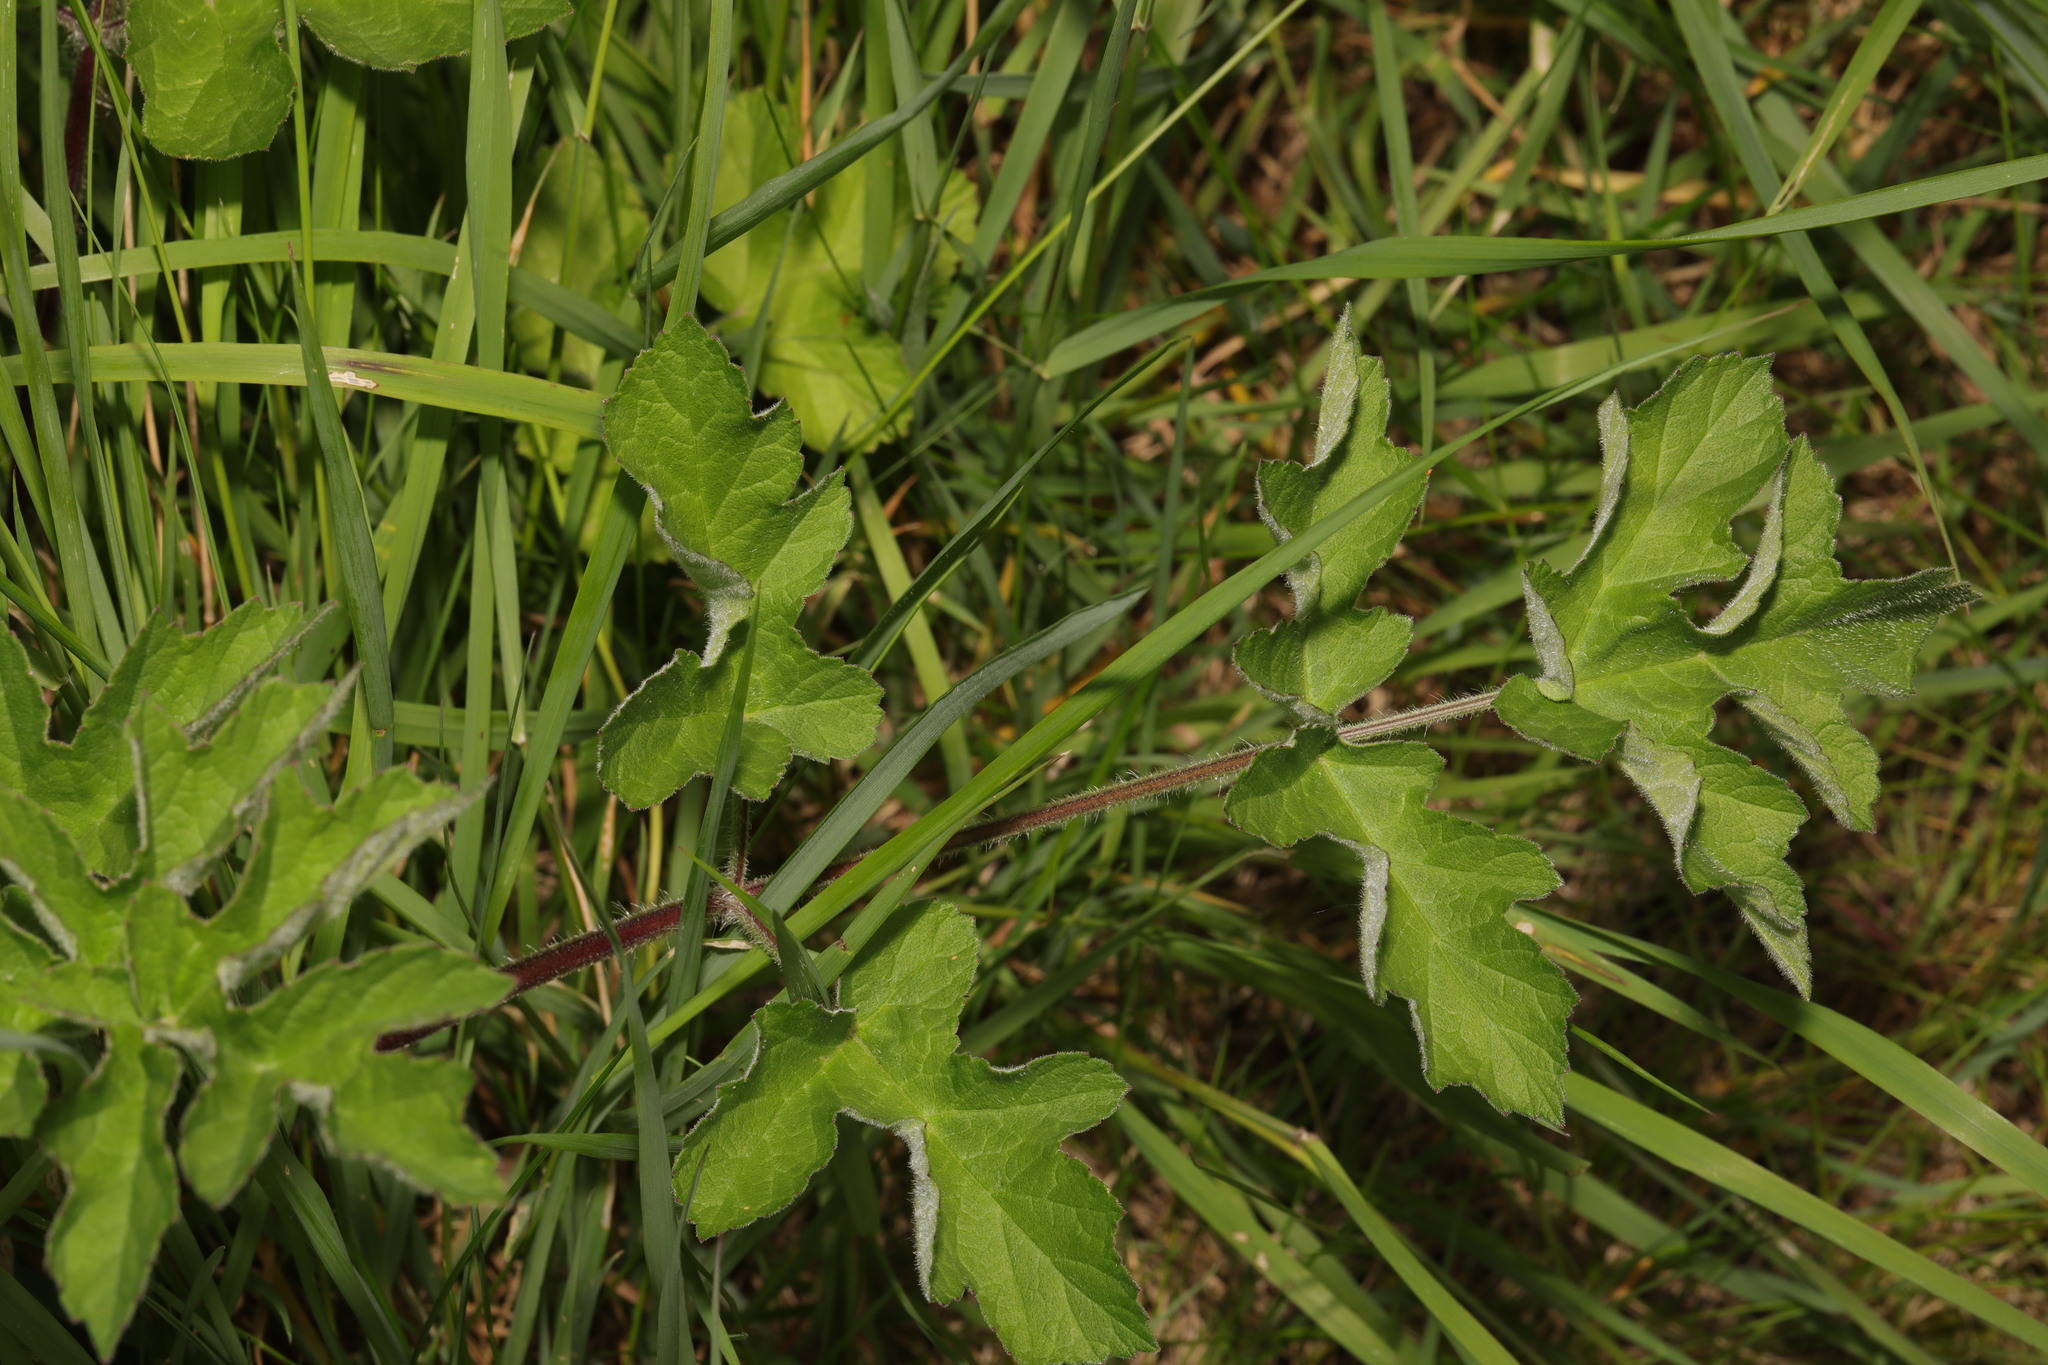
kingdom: Plantae
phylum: Tracheophyta
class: Magnoliopsida
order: Apiales
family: Apiaceae
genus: Heracleum
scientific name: Heracleum sphondylium
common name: Hogweed
